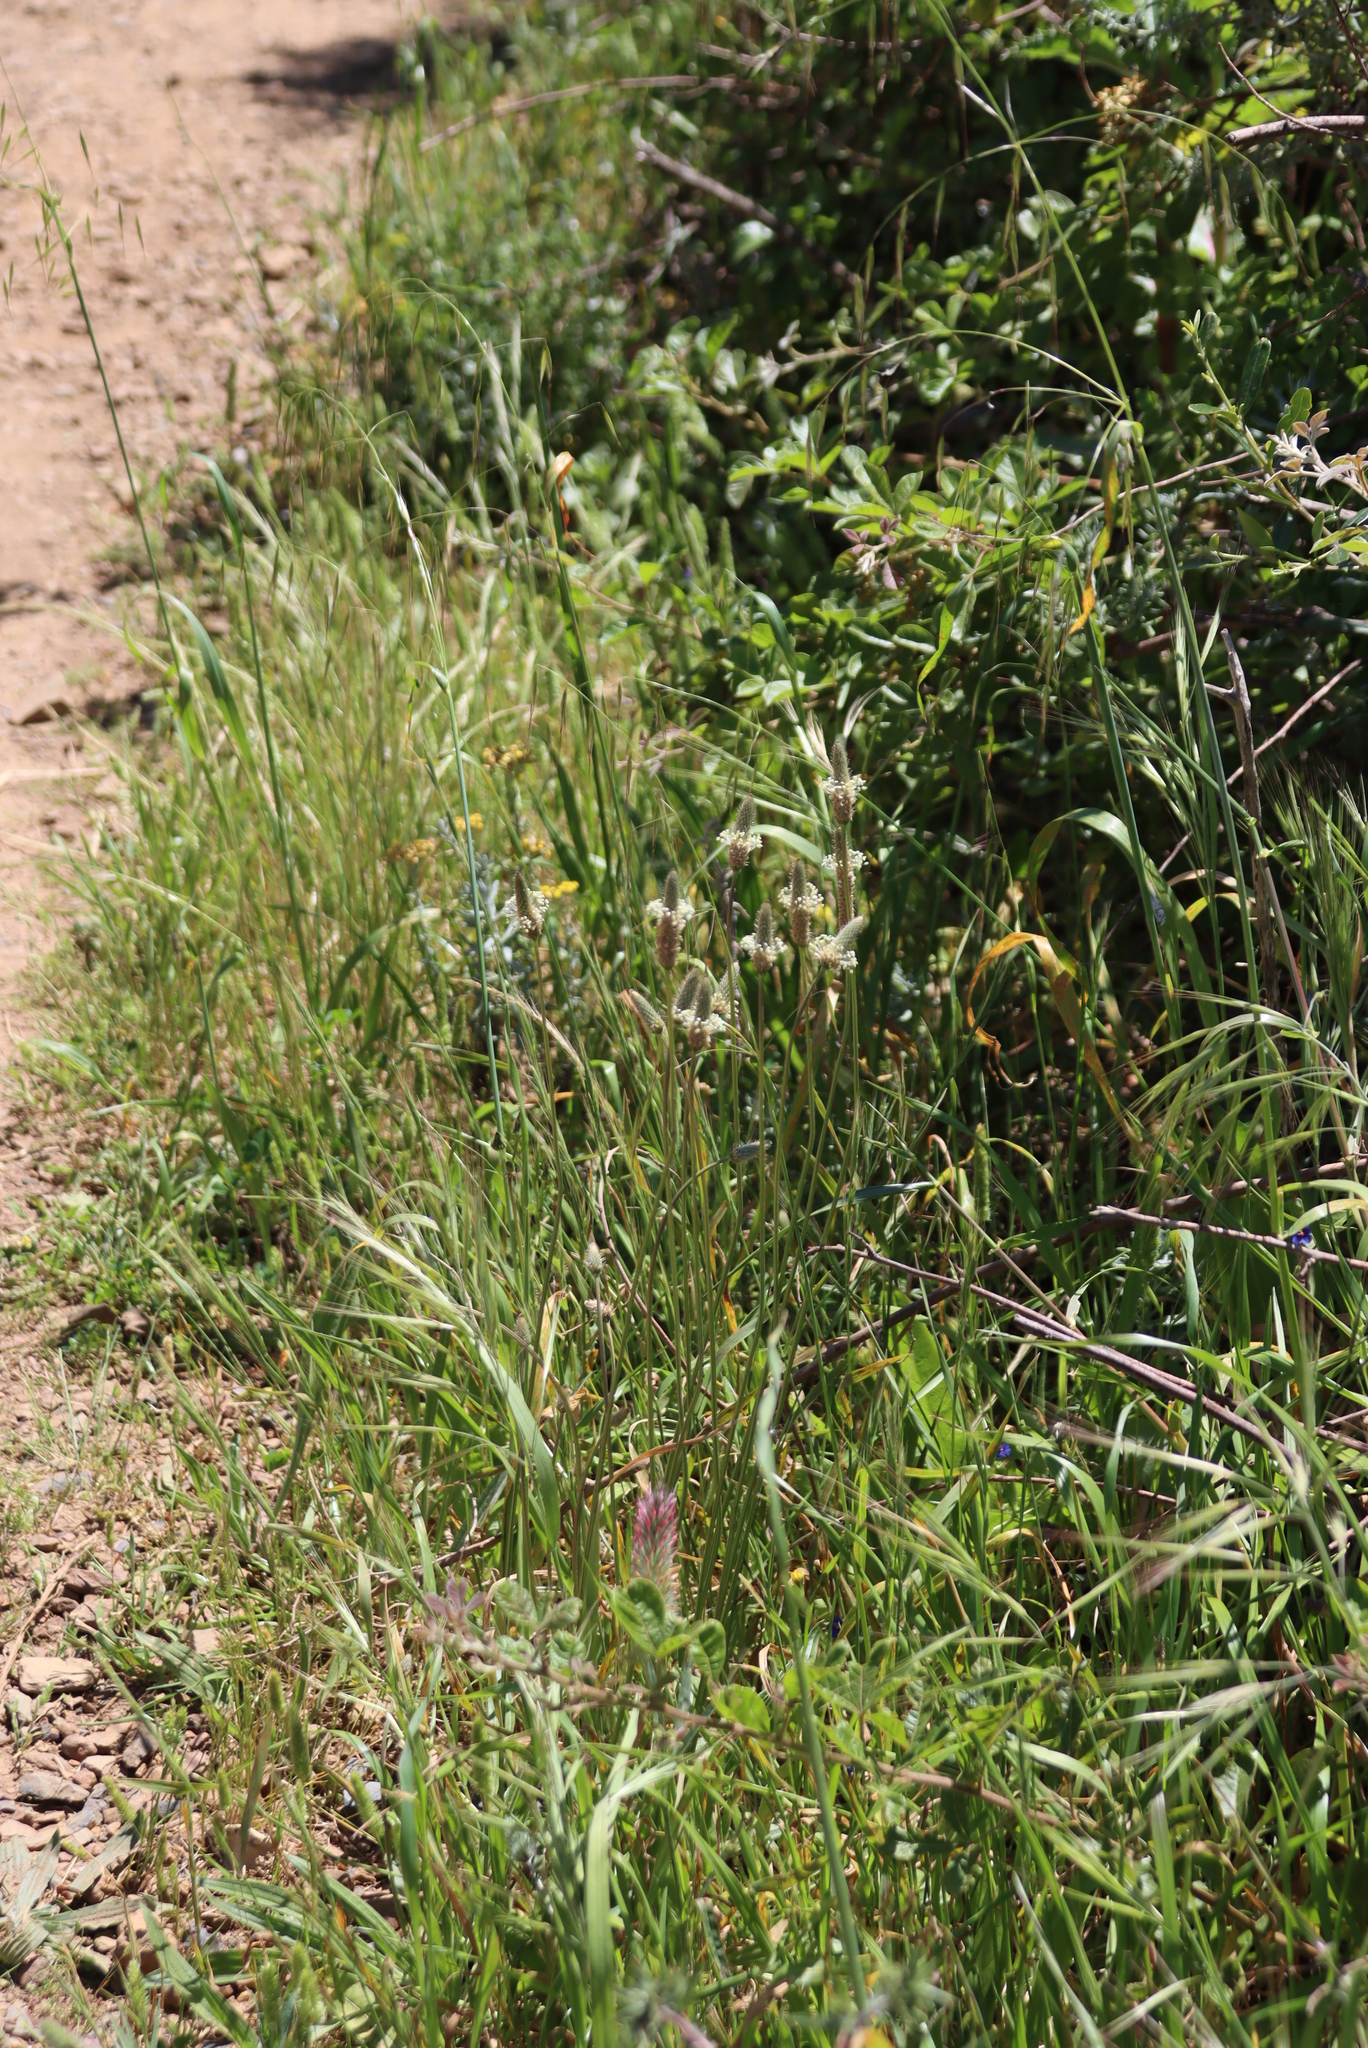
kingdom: Plantae
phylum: Tracheophyta
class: Magnoliopsida
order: Lamiales
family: Plantaginaceae
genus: Plantago
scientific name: Plantago lanceolata
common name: Ribwort plantain
